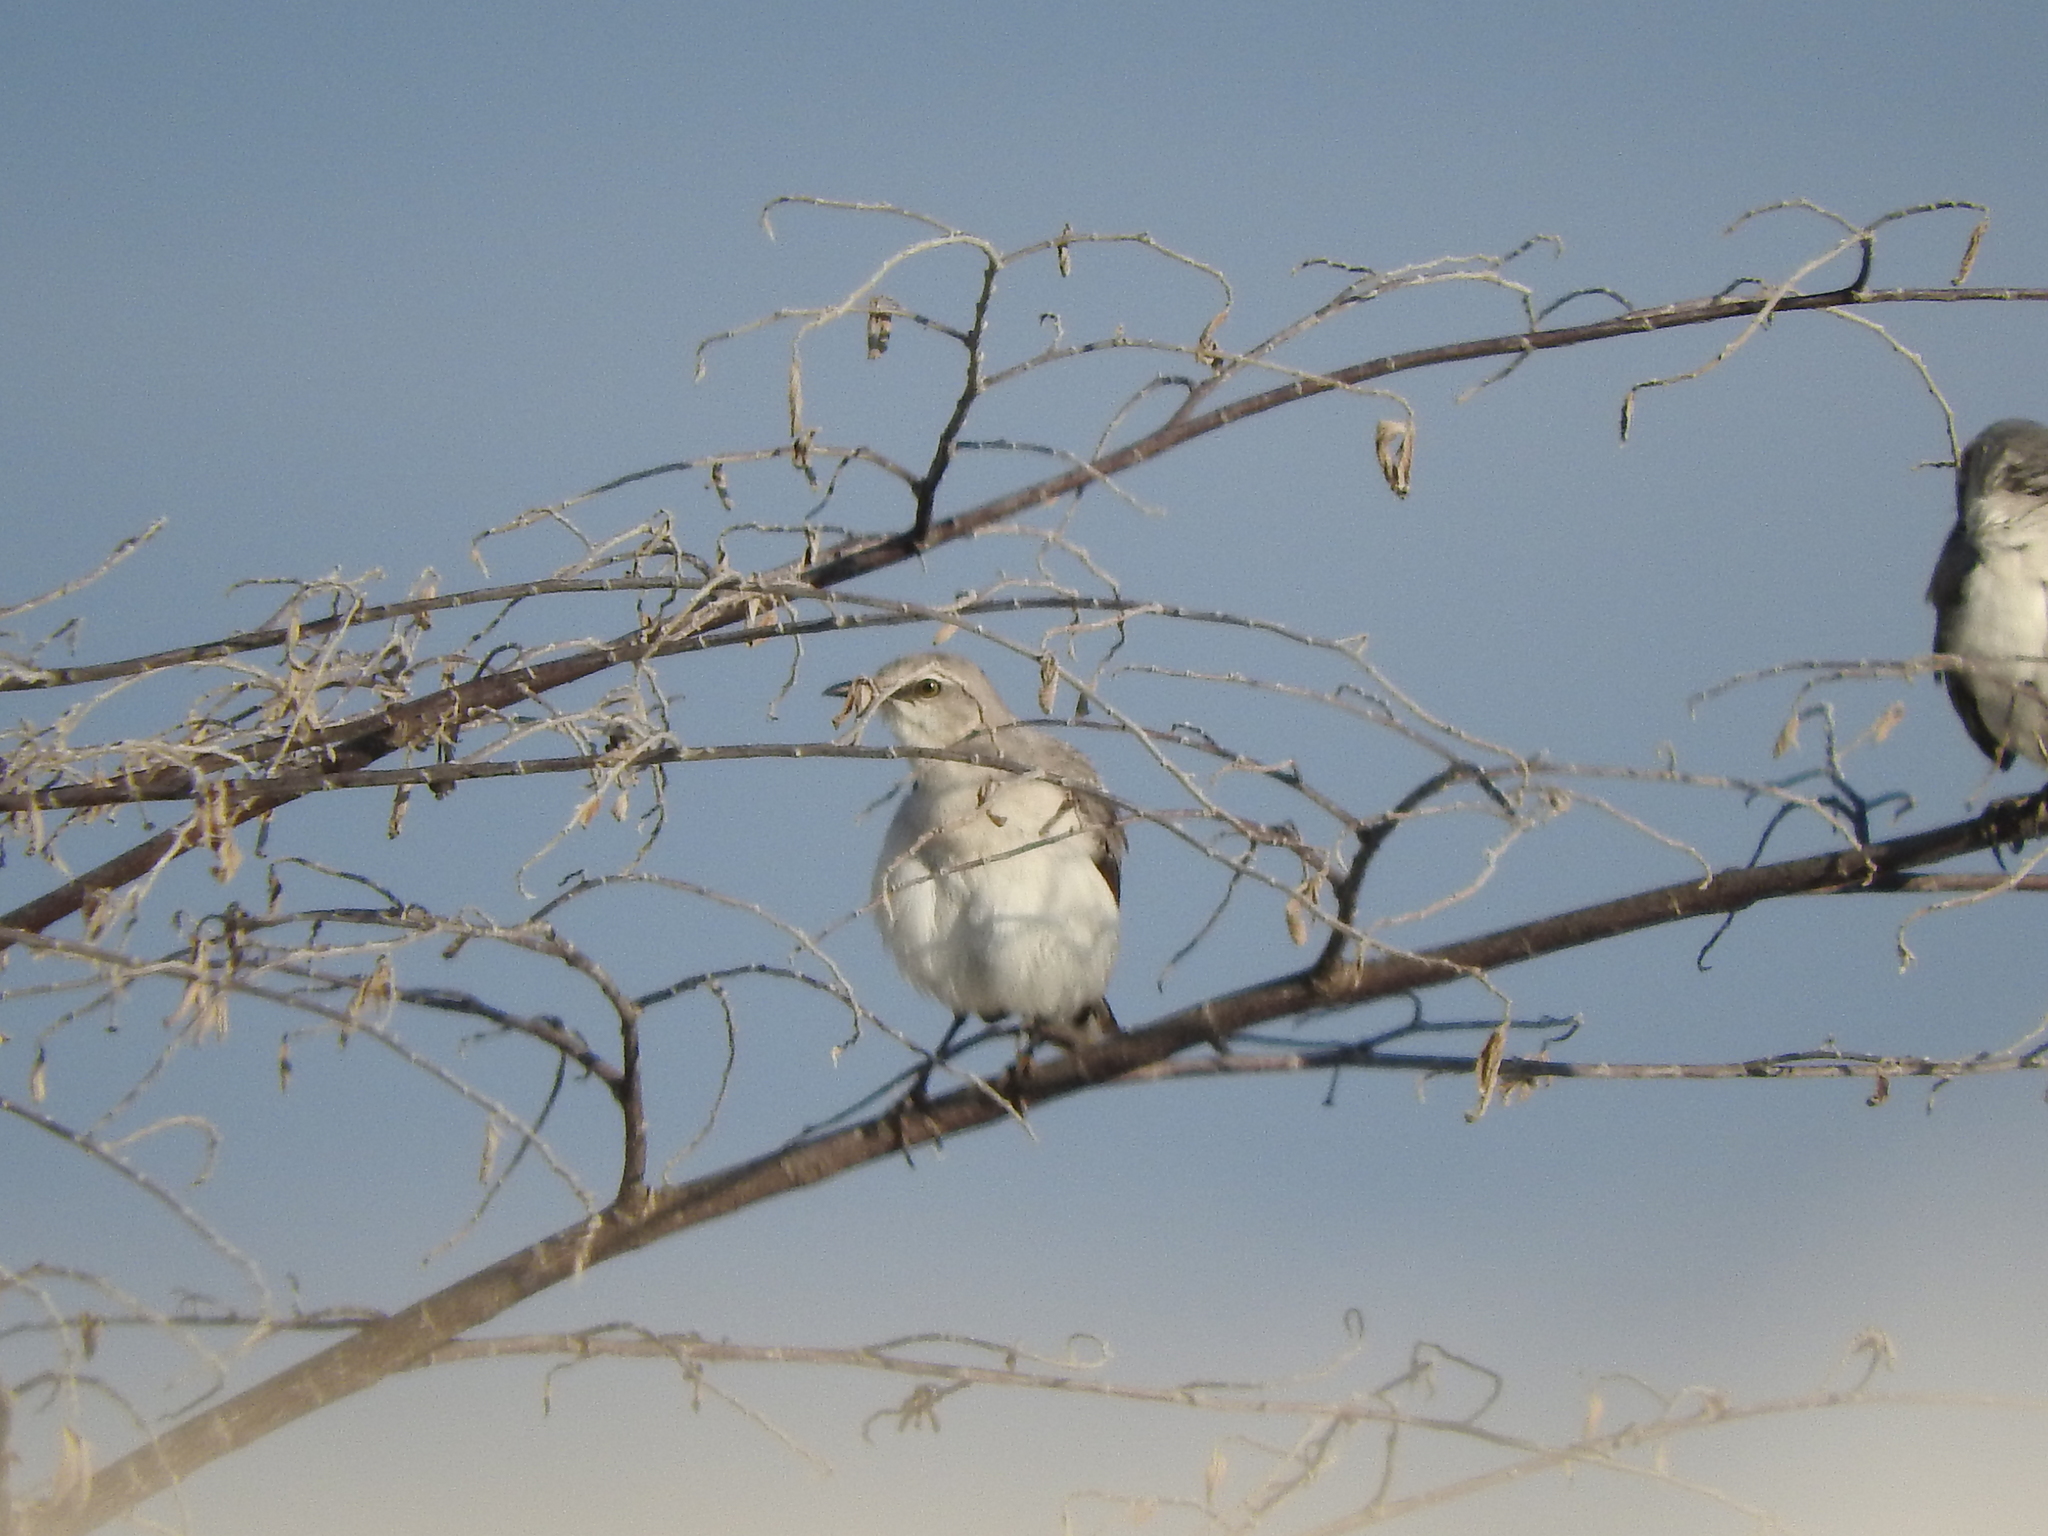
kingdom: Animalia
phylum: Chordata
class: Aves
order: Passeriformes
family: Mimidae
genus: Mimus
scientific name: Mimus gilvus
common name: Tropical mockingbird
